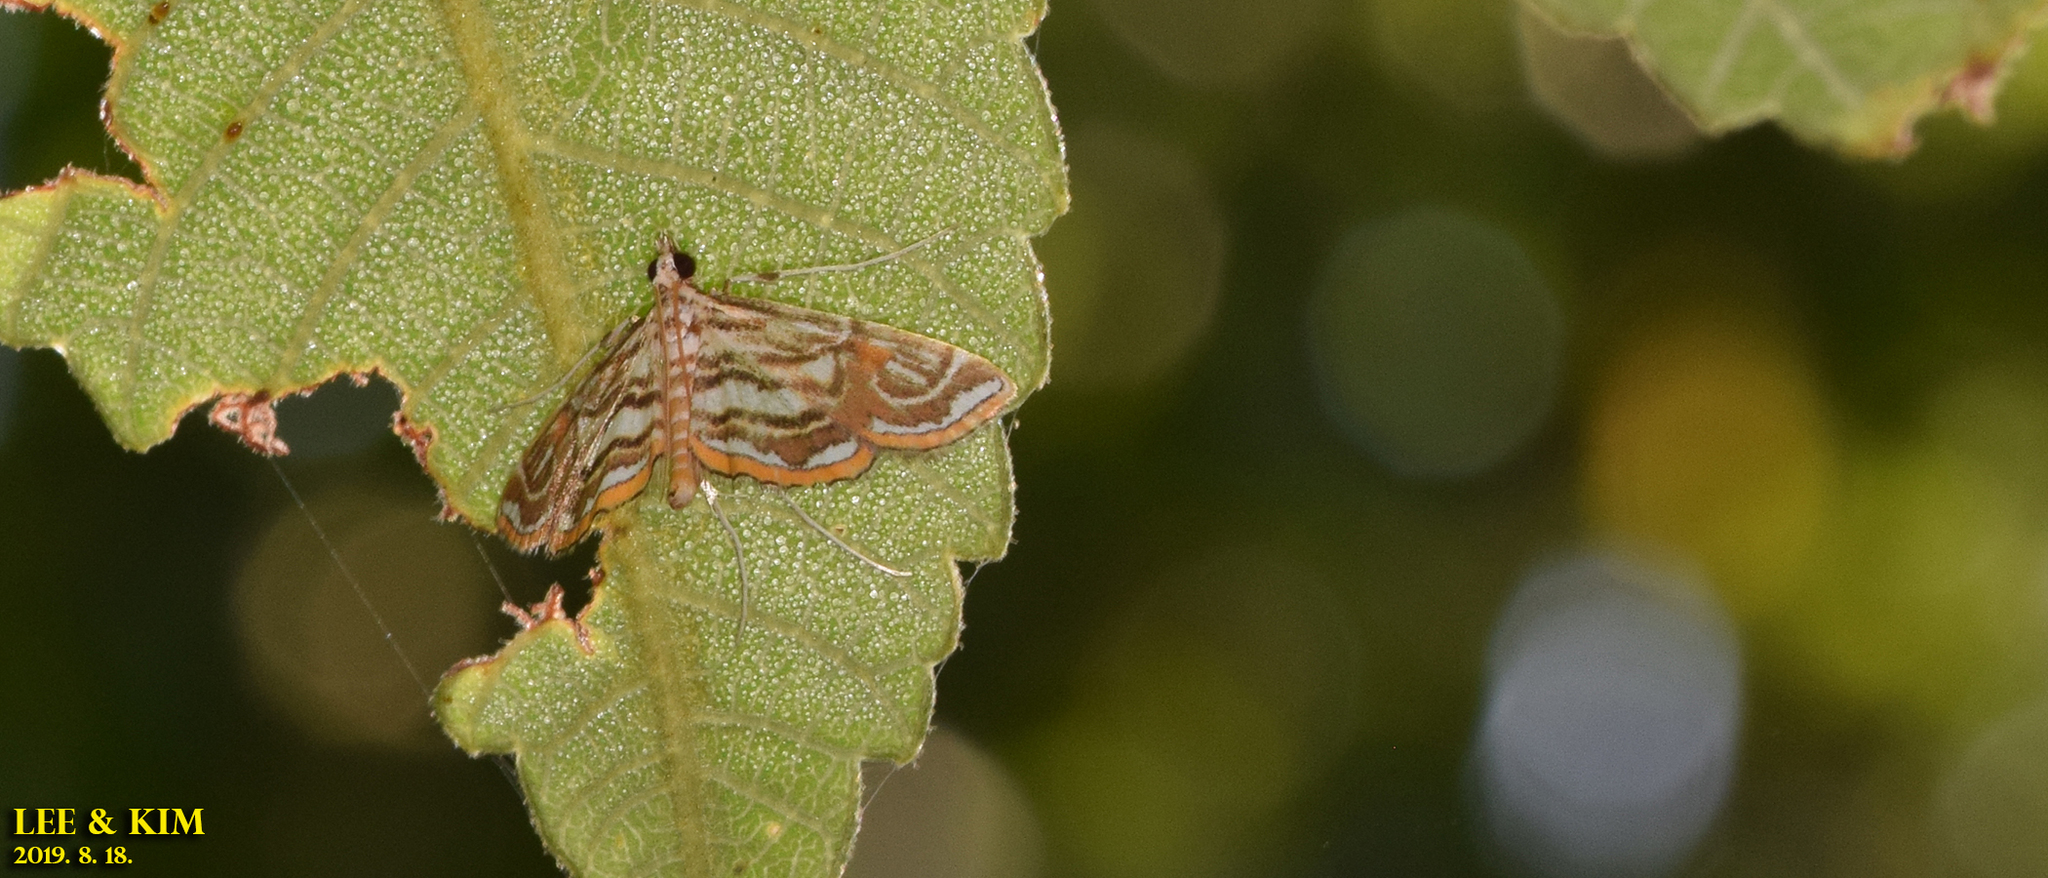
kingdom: Animalia
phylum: Arthropoda
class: Insecta
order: Lepidoptera
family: Crambidae
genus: Paracymoriza
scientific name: Paracymoriza prodigalis
